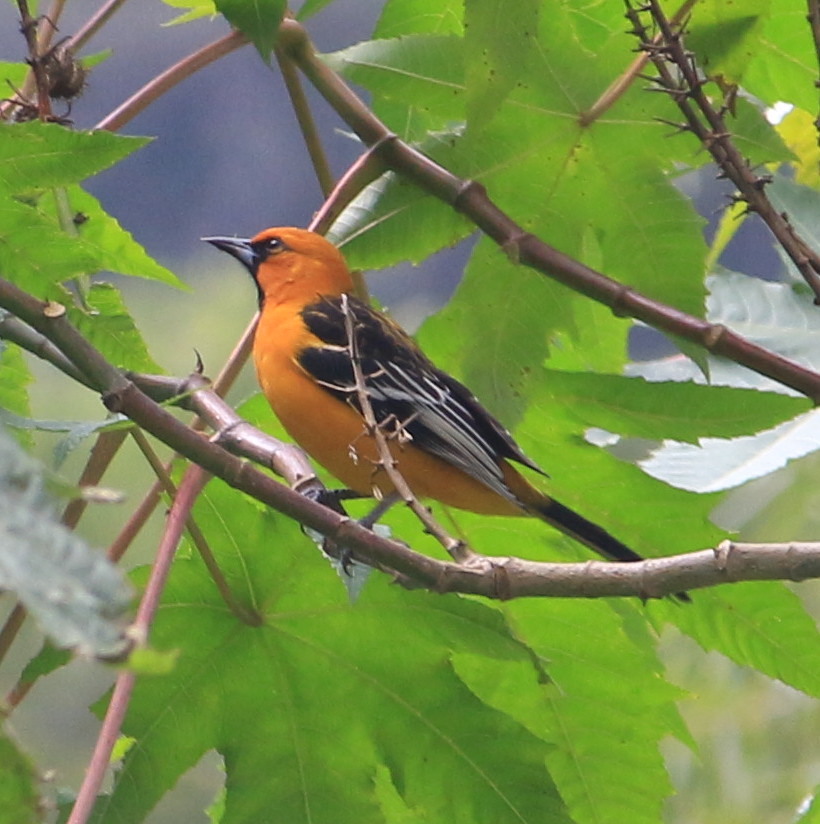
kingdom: Animalia
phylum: Chordata
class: Aves
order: Passeriformes
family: Icteridae
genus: Icterus
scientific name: Icterus pustulatus
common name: Streak-backed oriole
